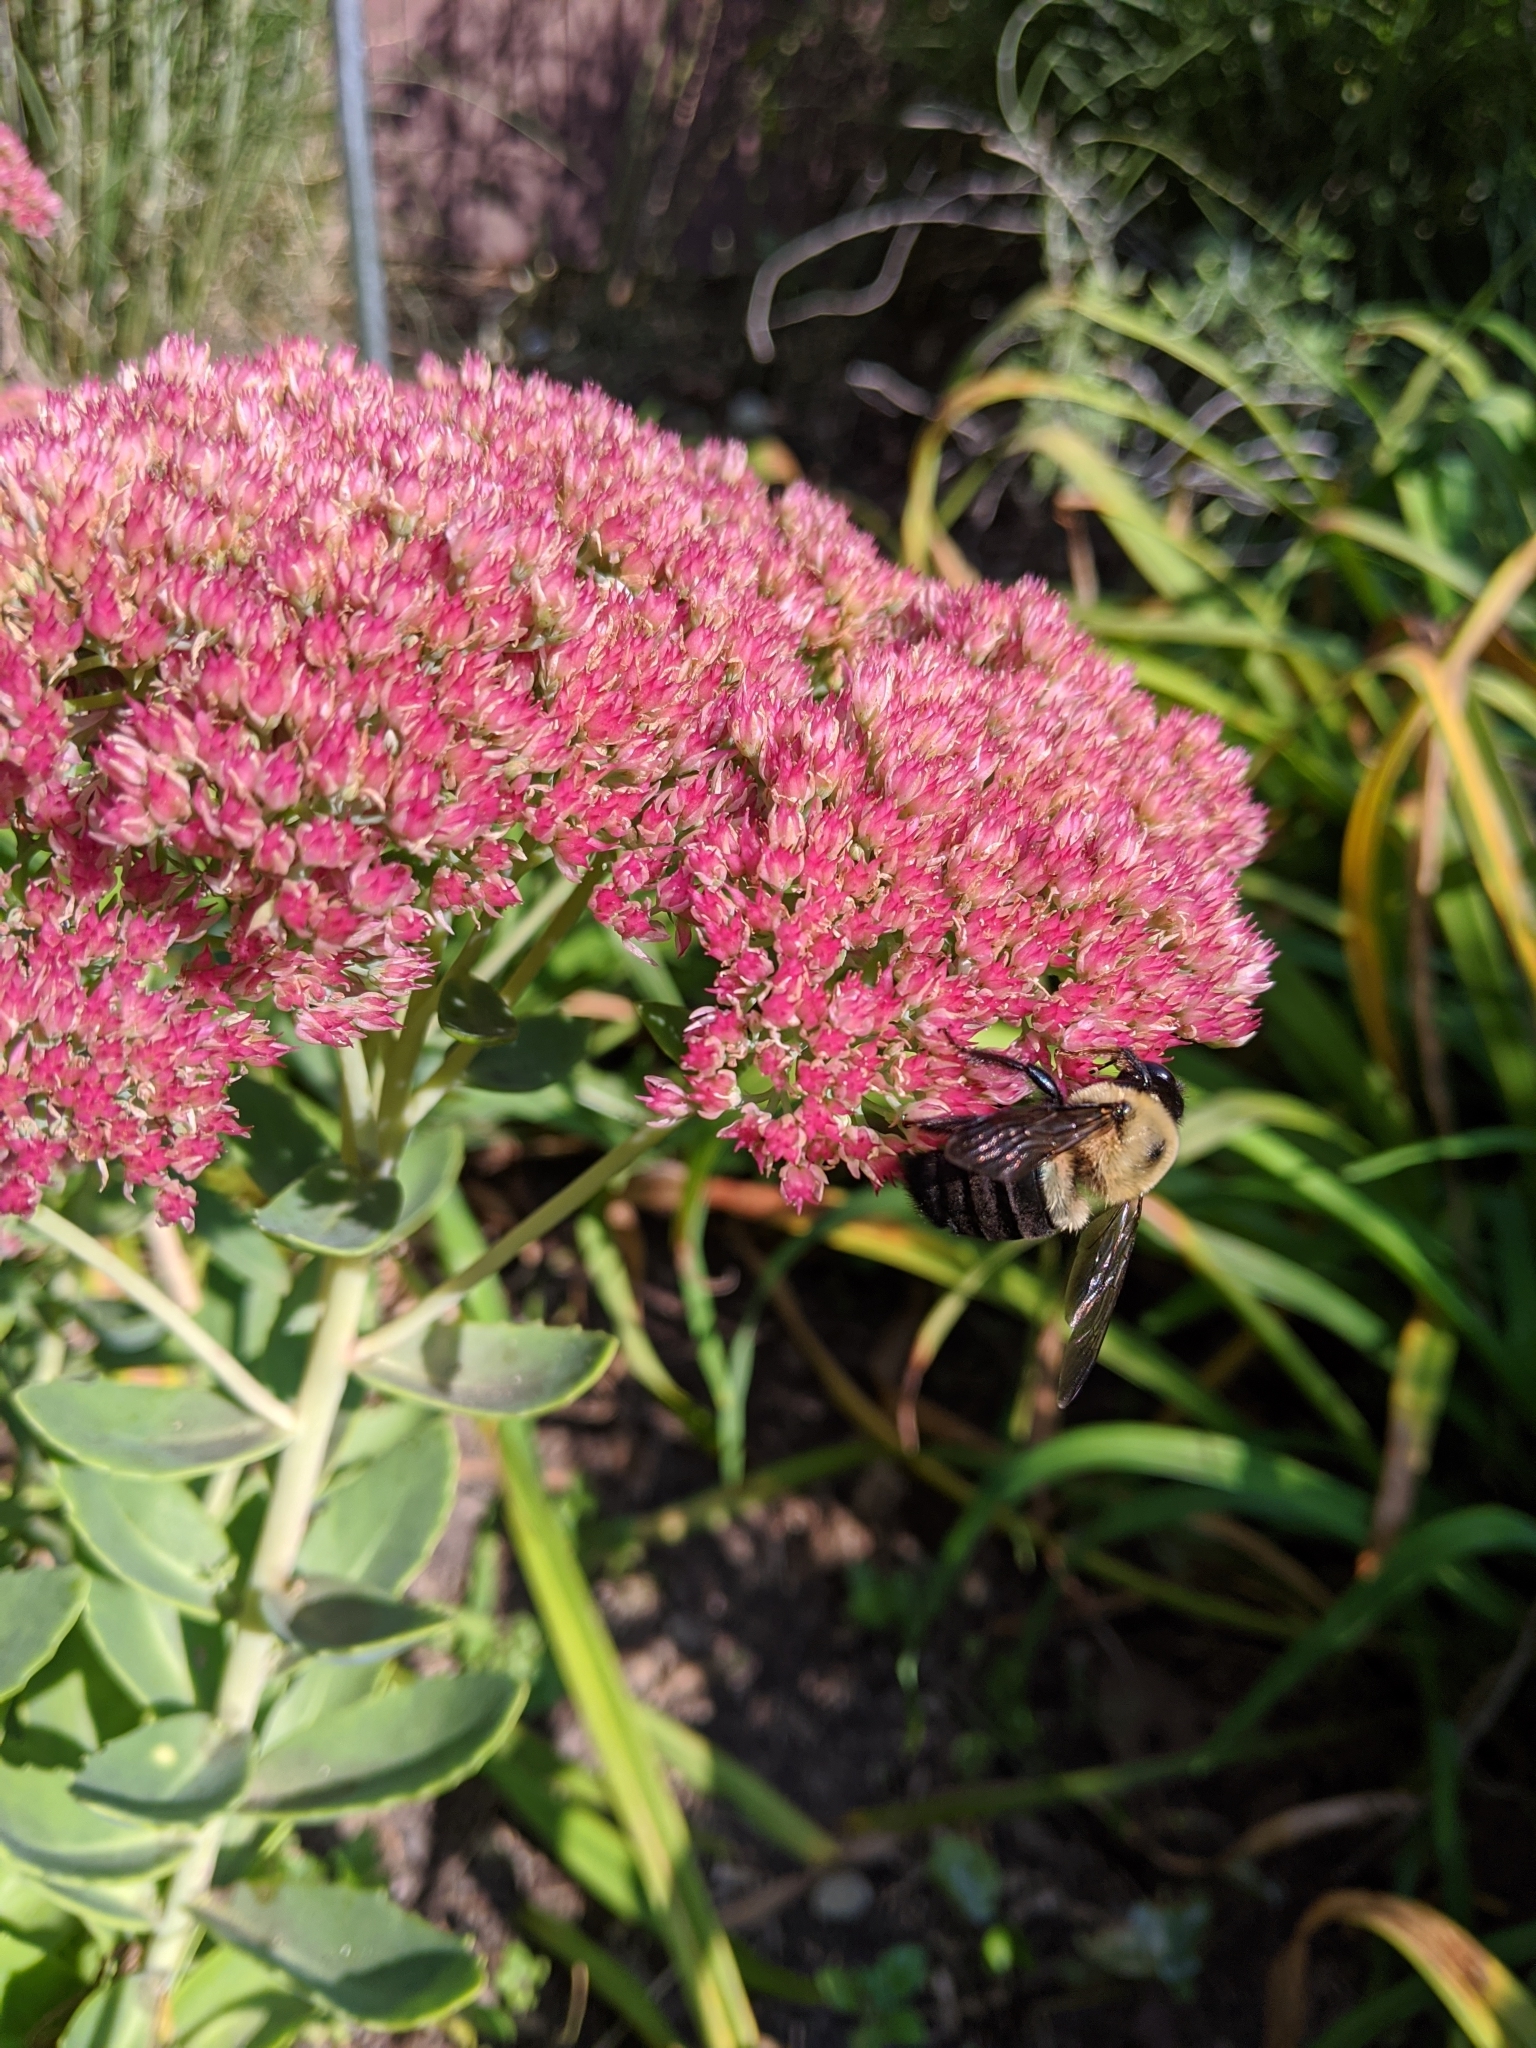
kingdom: Animalia
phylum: Arthropoda
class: Insecta
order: Hymenoptera
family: Apidae
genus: Xylocopa
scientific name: Xylocopa virginica
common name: Carpenter bee
